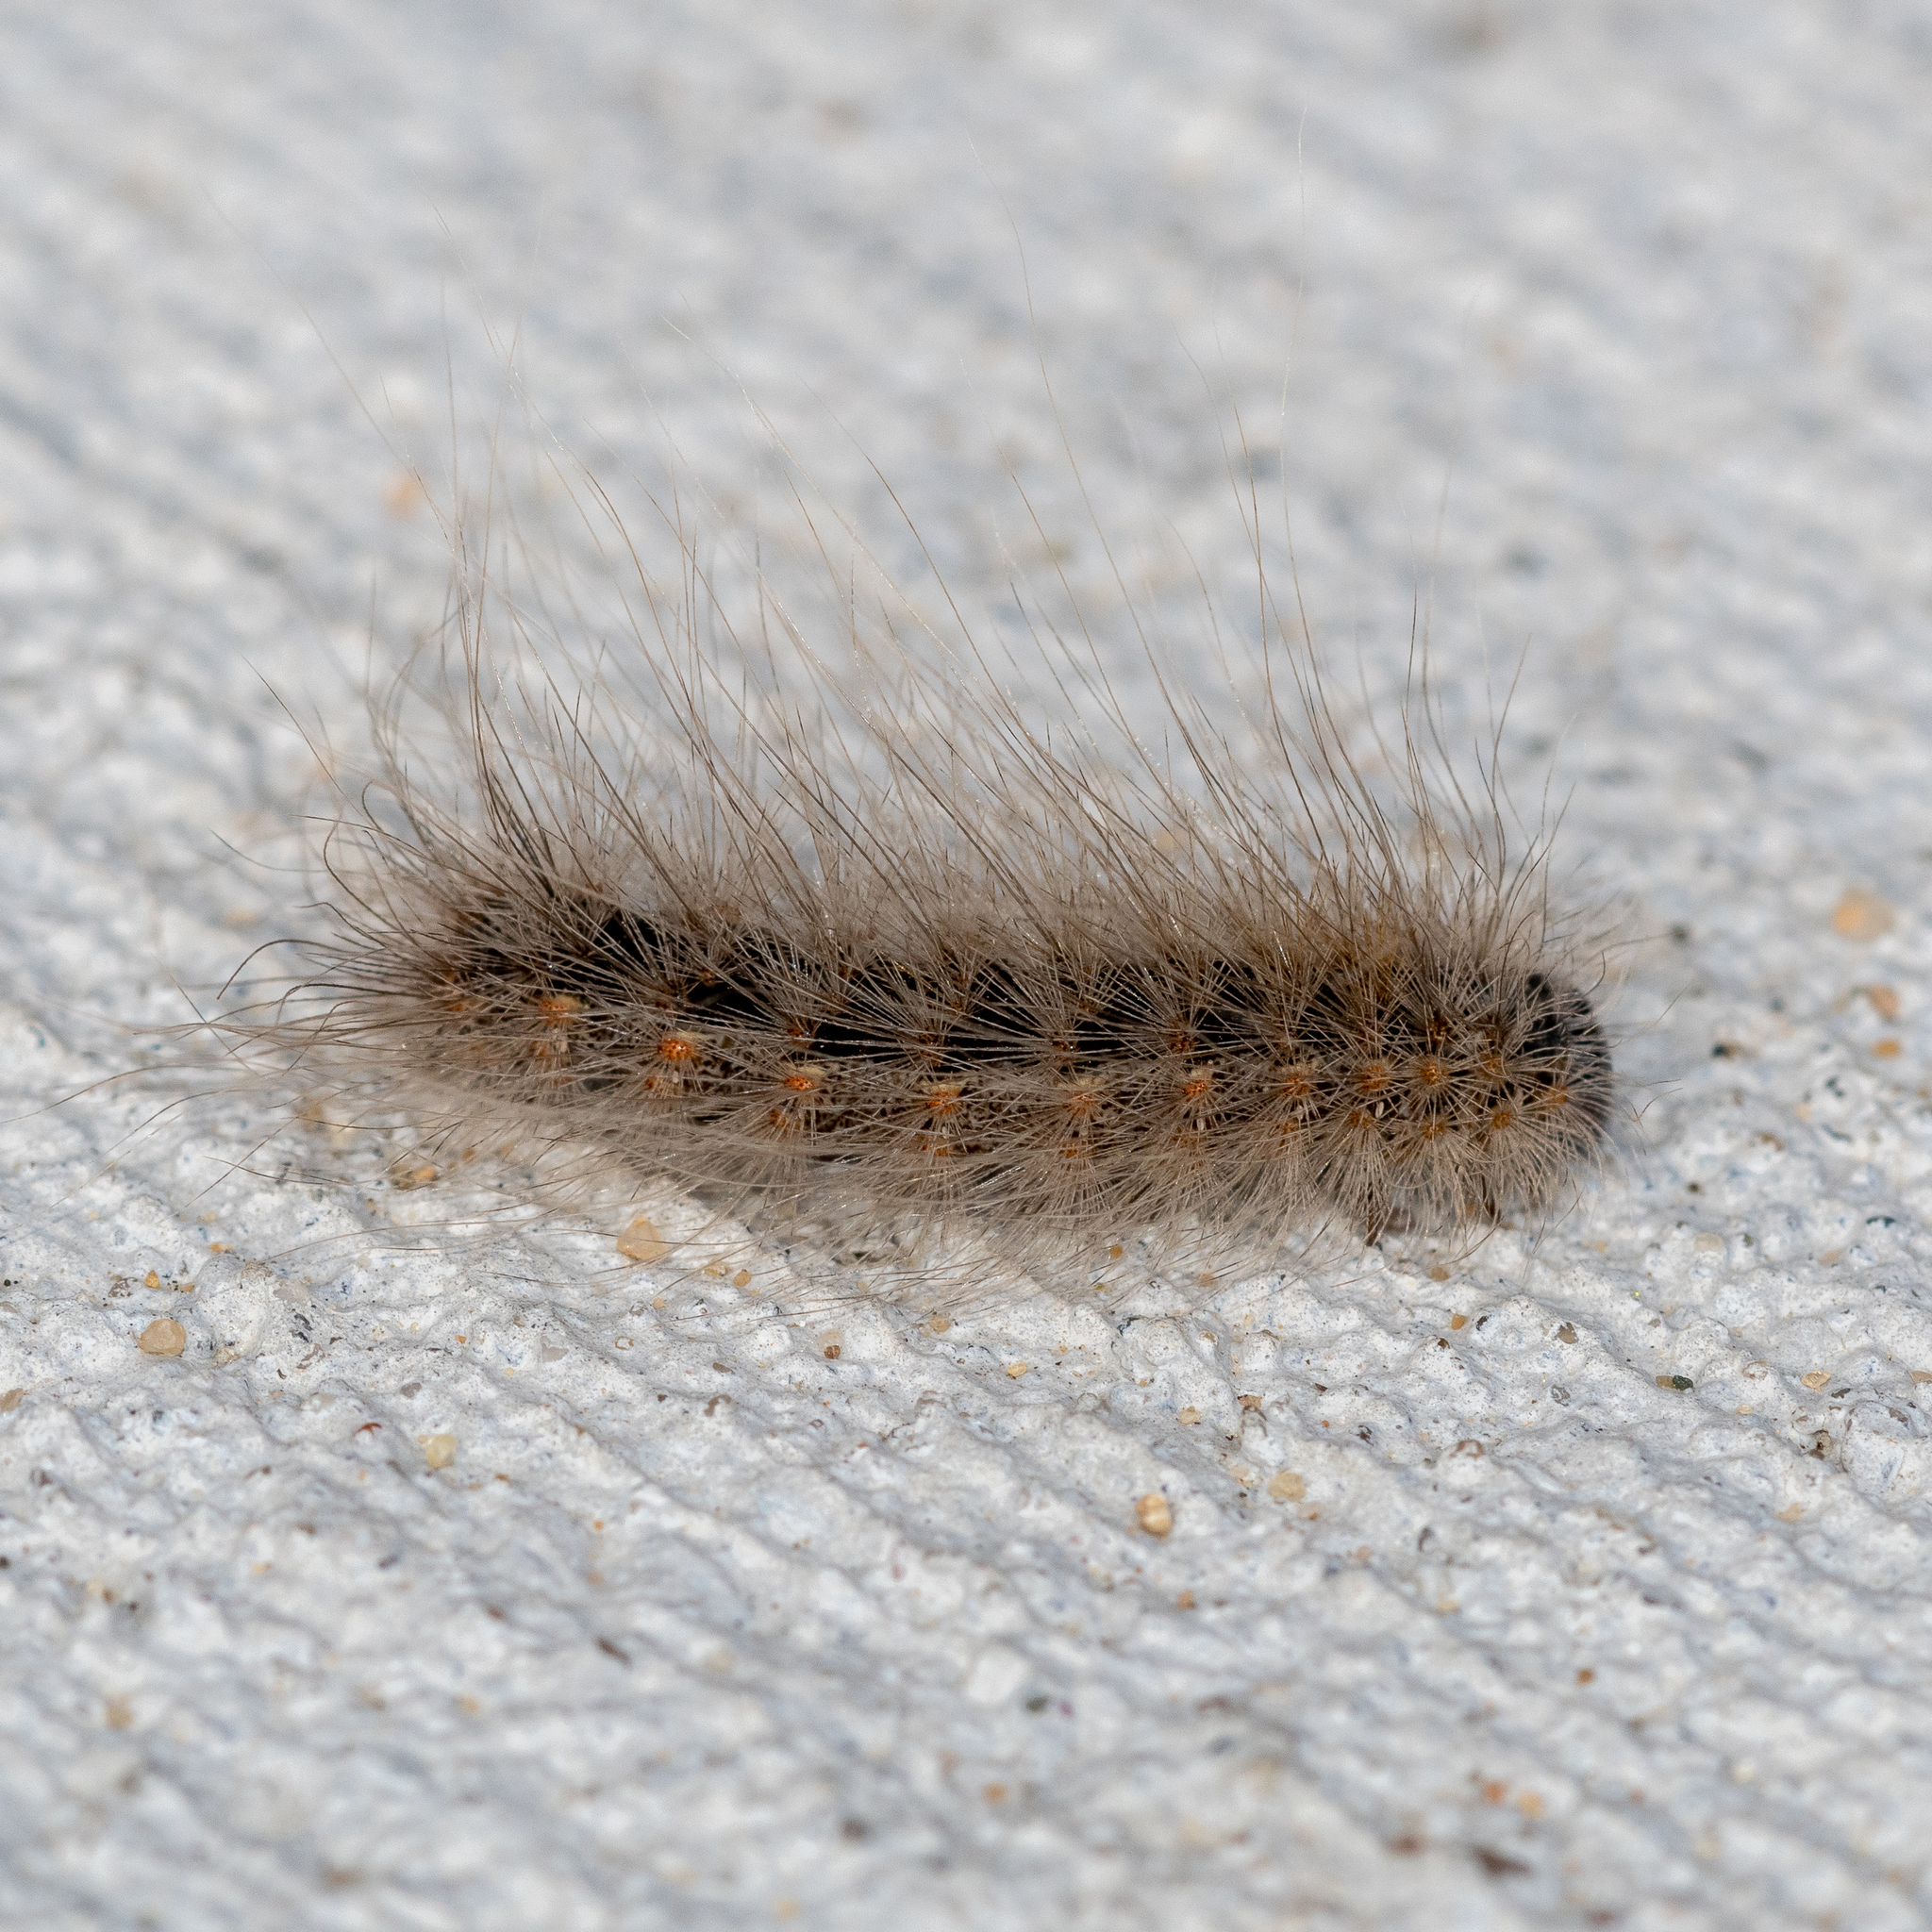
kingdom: Animalia
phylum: Arthropoda
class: Insecta
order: Lepidoptera
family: Erebidae
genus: Hyphantria
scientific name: Hyphantria cunea
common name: American white moth
